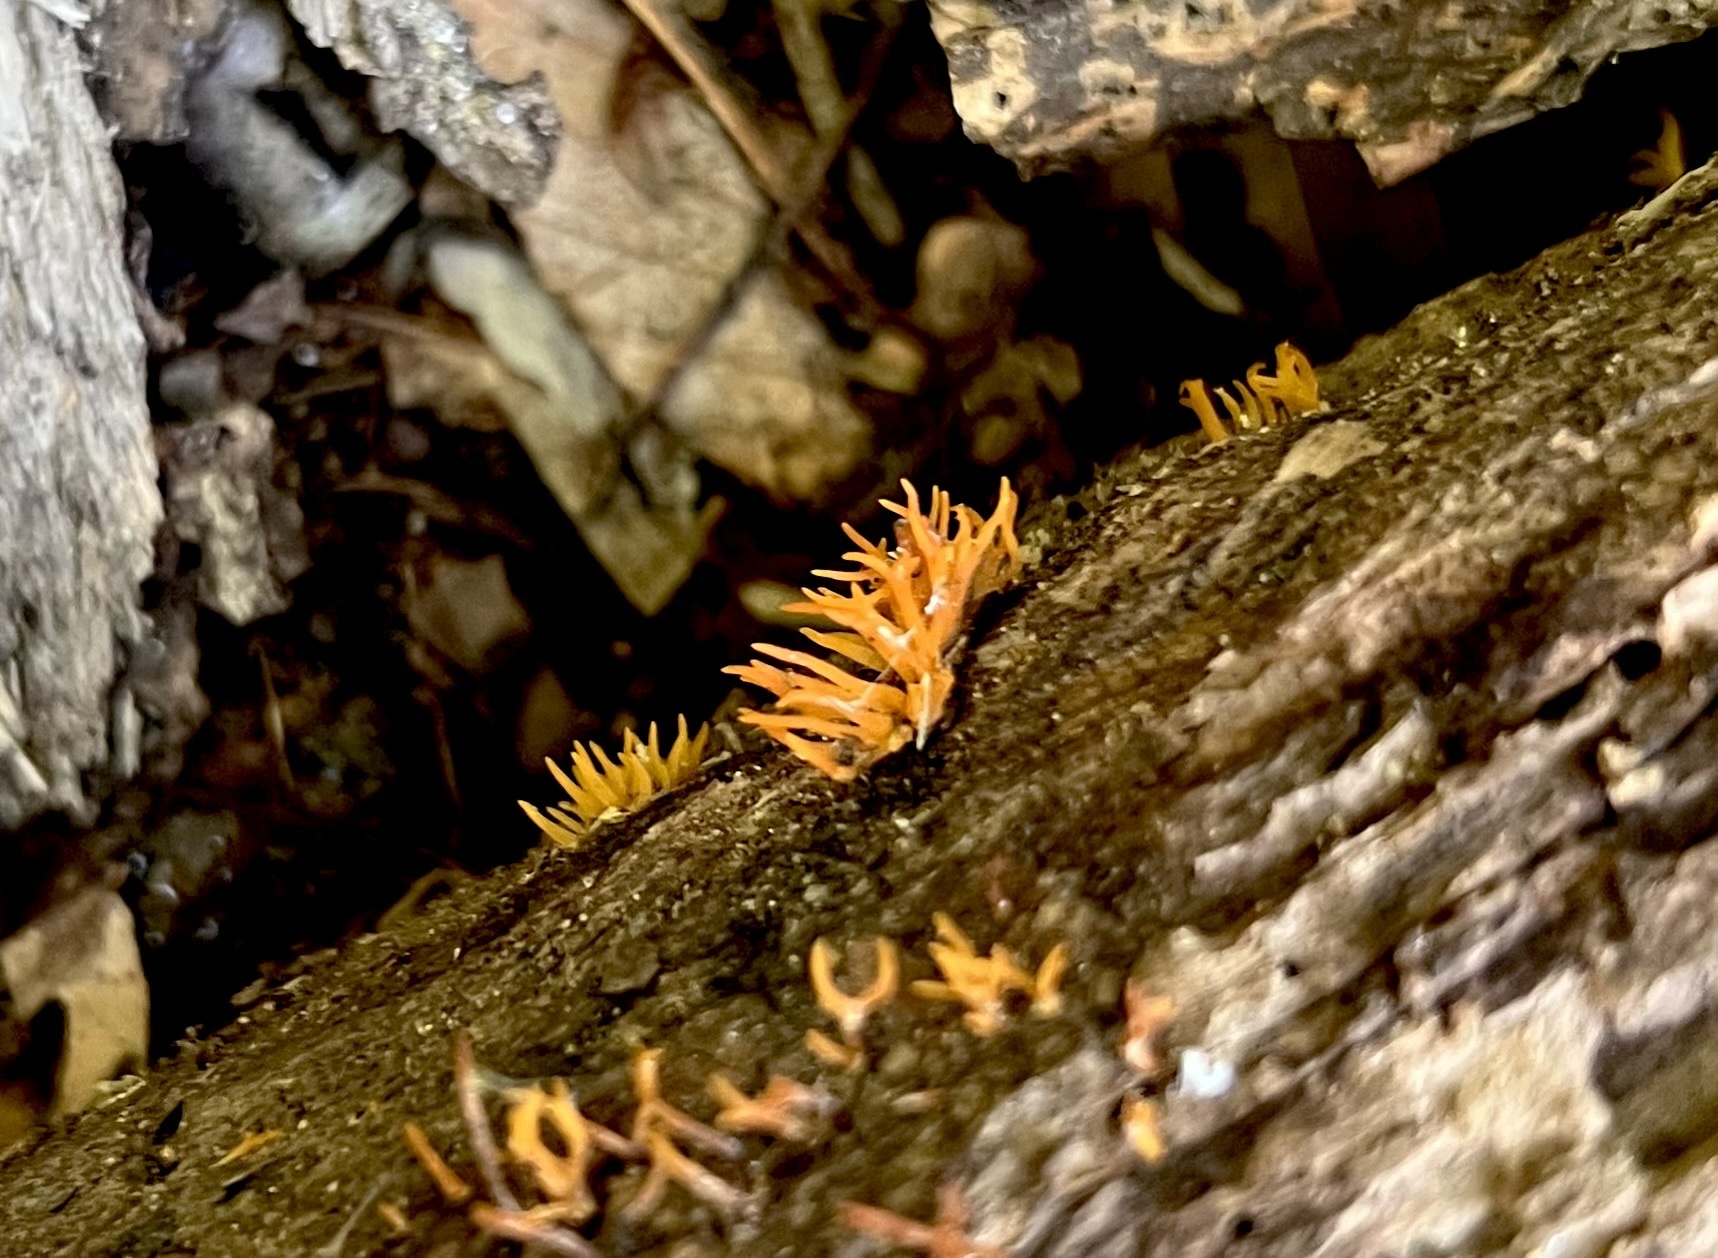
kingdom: Fungi
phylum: Basidiomycota
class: Dacrymycetes
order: Dacrymycetales
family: Dacrymycetaceae
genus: Calocera
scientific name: Calocera cornea
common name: Small stagshorn
